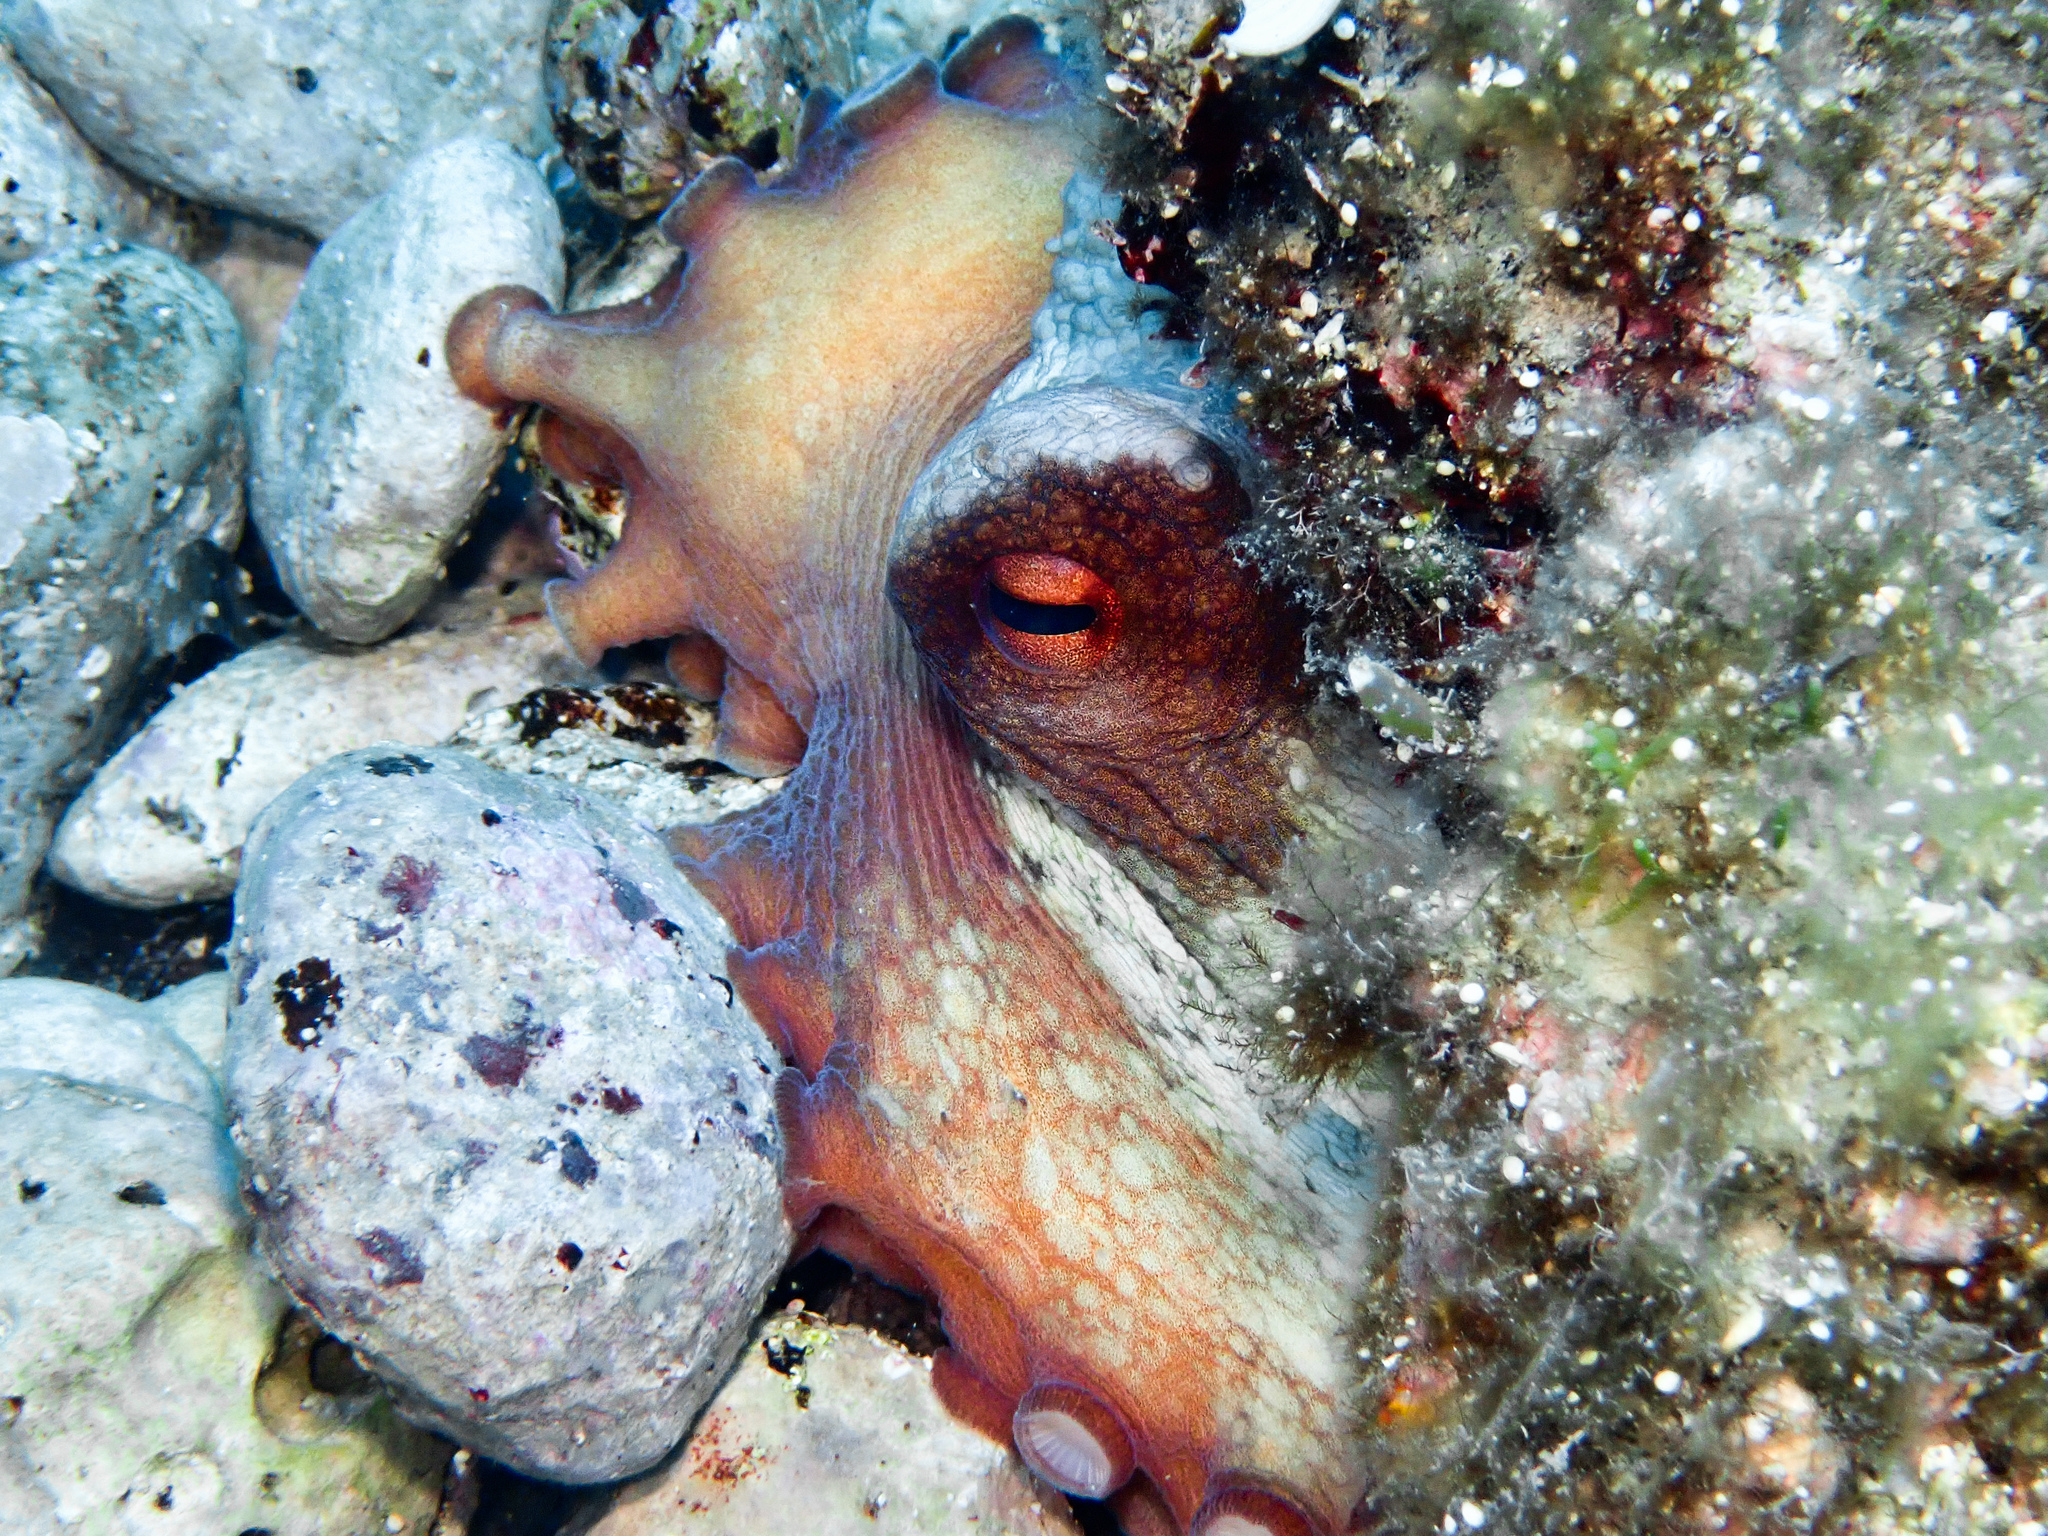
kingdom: Animalia
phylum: Mollusca
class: Cephalopoda
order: Octopoda
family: Octopodidae
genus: Octopus
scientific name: Octopus vulgaris
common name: Common octopus
